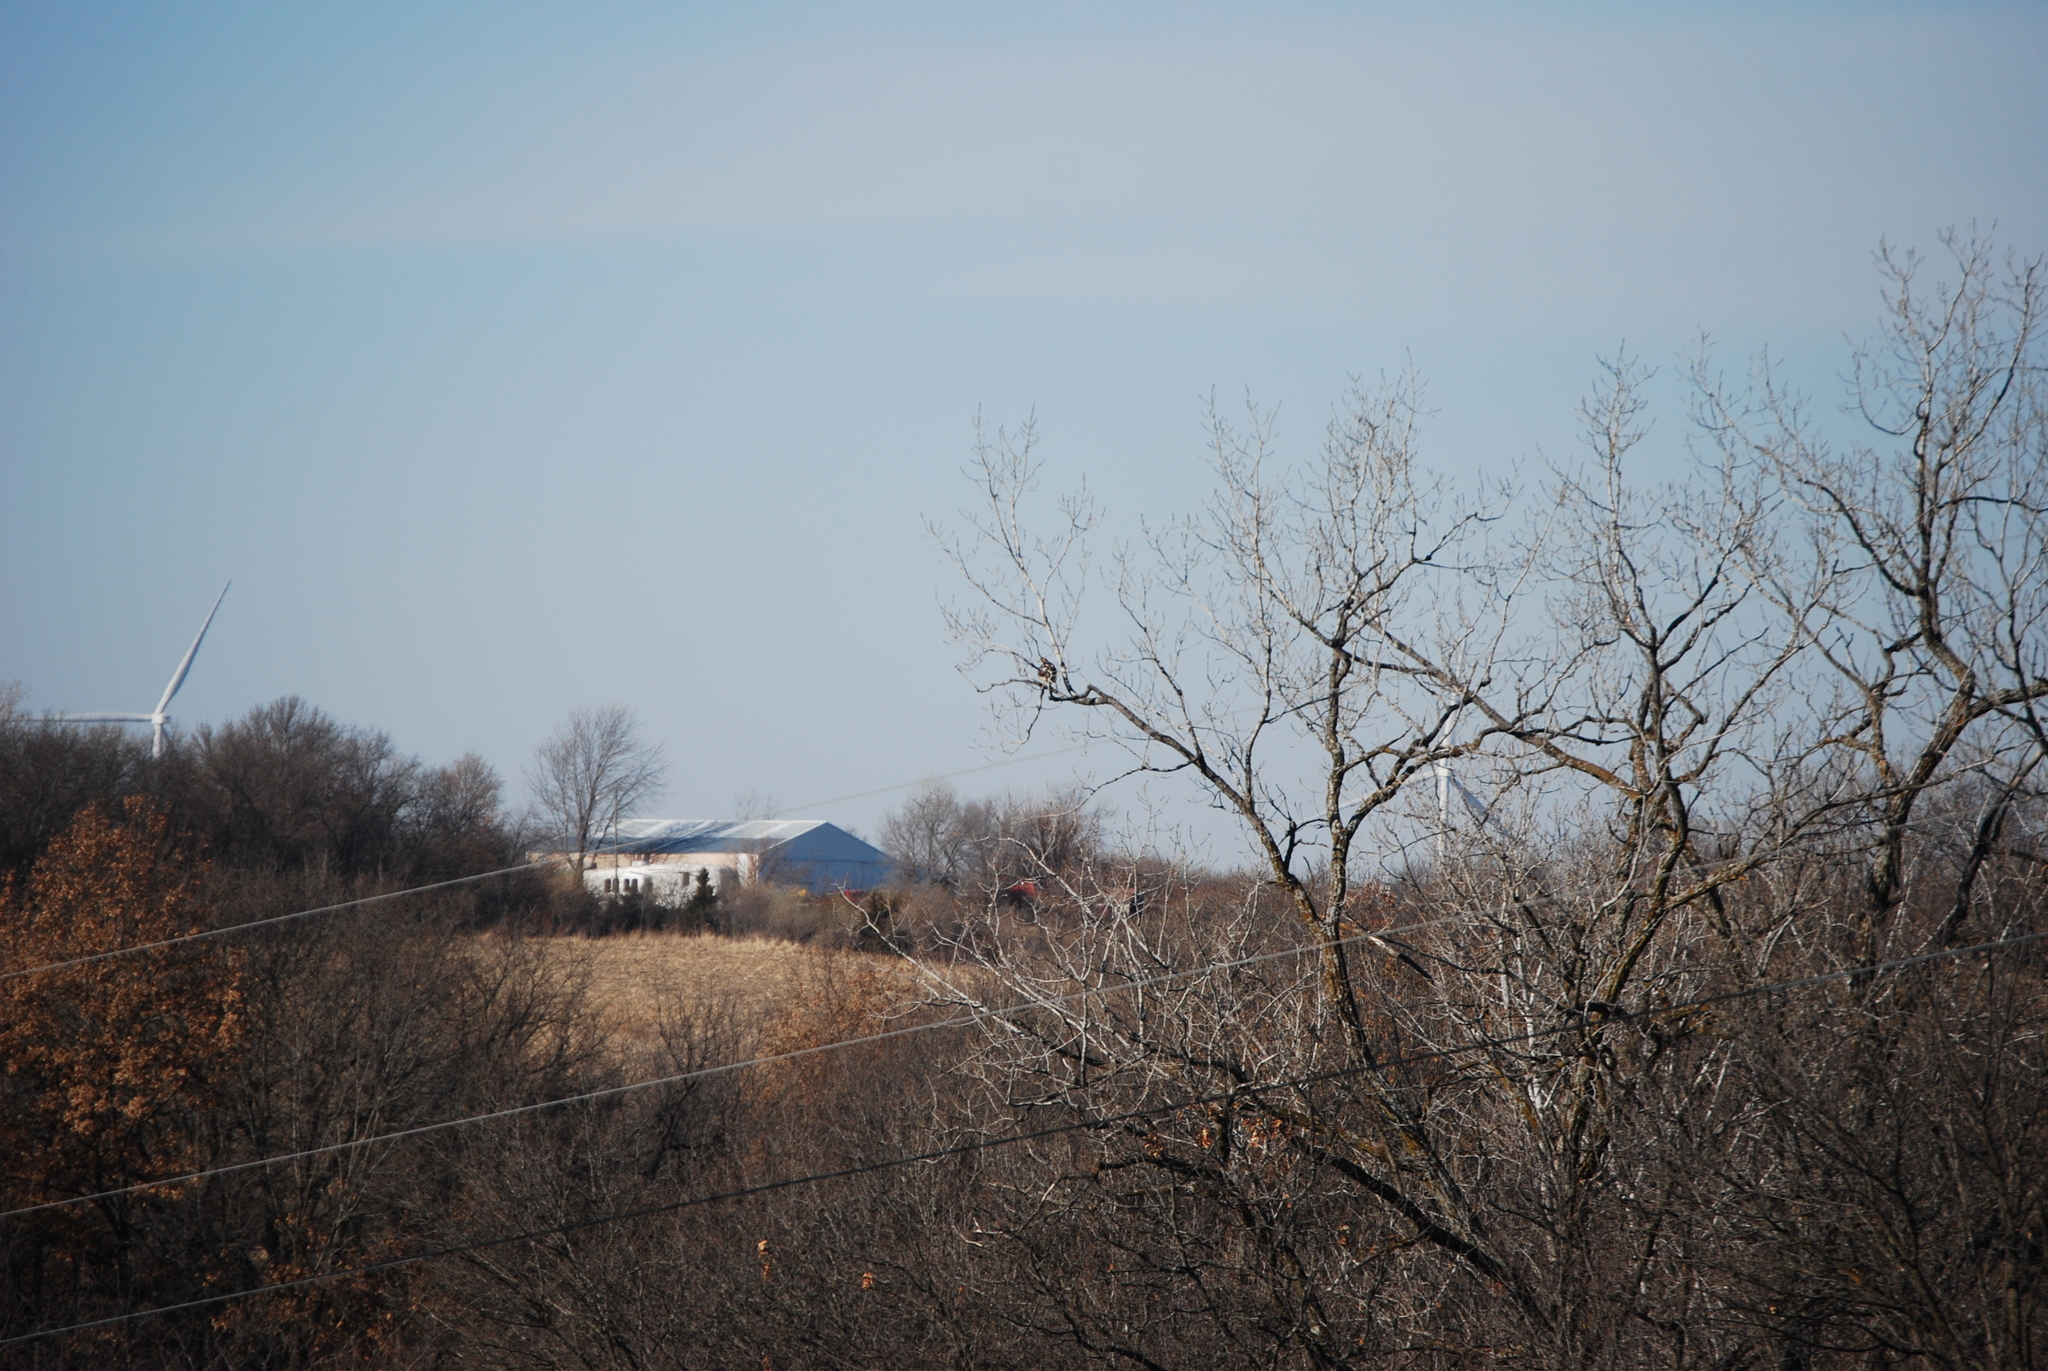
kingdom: Animalia
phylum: Chordata
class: Aves
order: Accipitriformes
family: Accipitridae
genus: Buteo
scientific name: Buteo jamaicensis
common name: Red-tailed hawk
